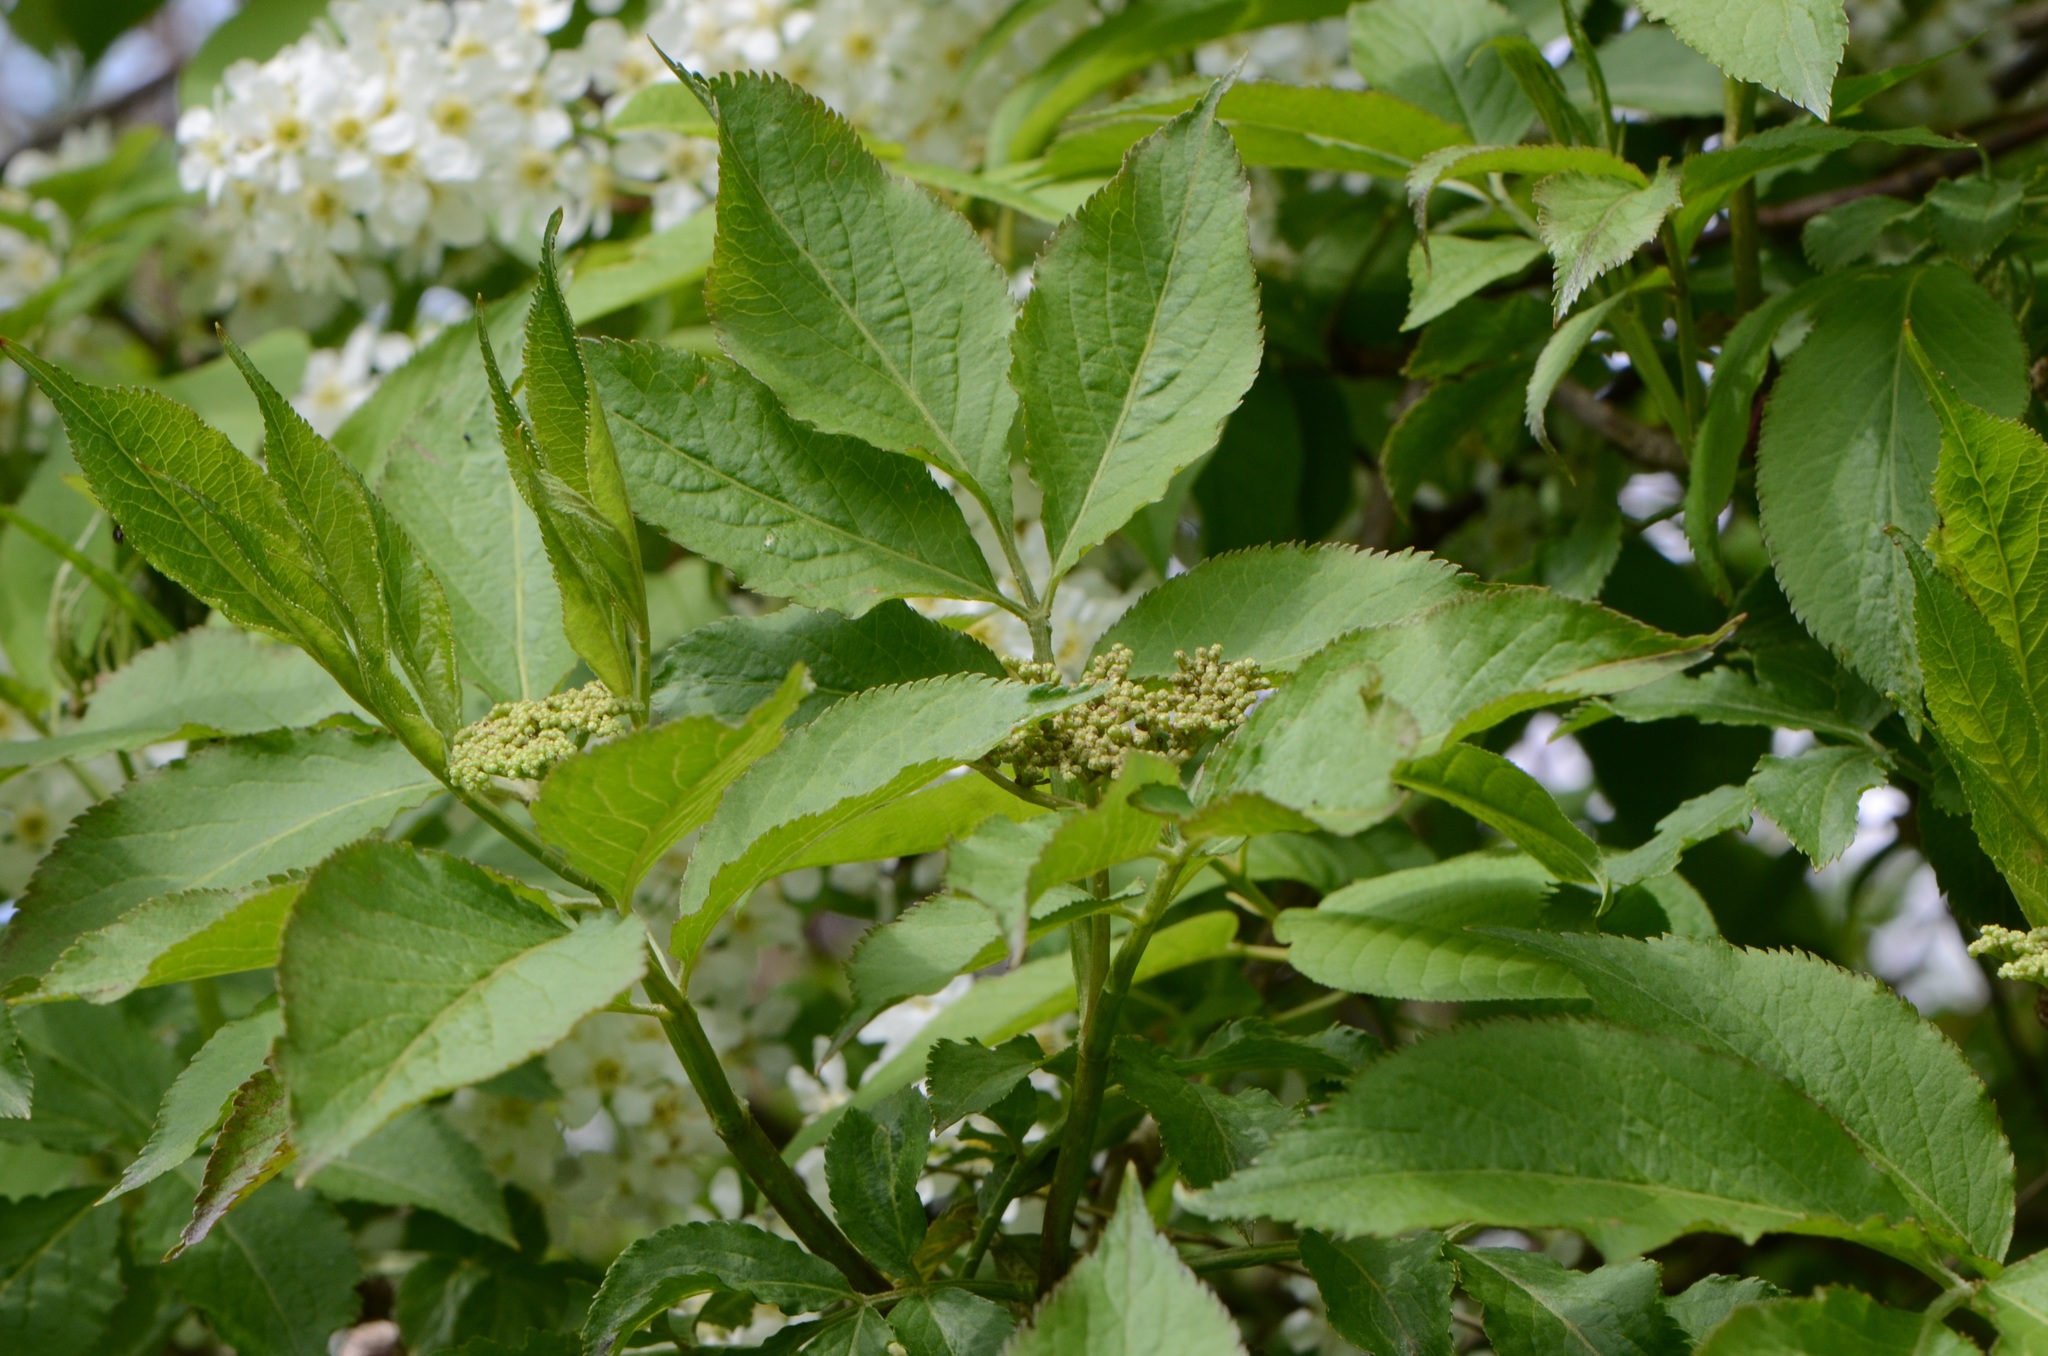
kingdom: Plantae
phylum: Tracheophyta
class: Magnoliopsida
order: Dipsacales
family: Viburnaceae
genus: Sambucus
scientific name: Sambucus nigra
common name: Elder
